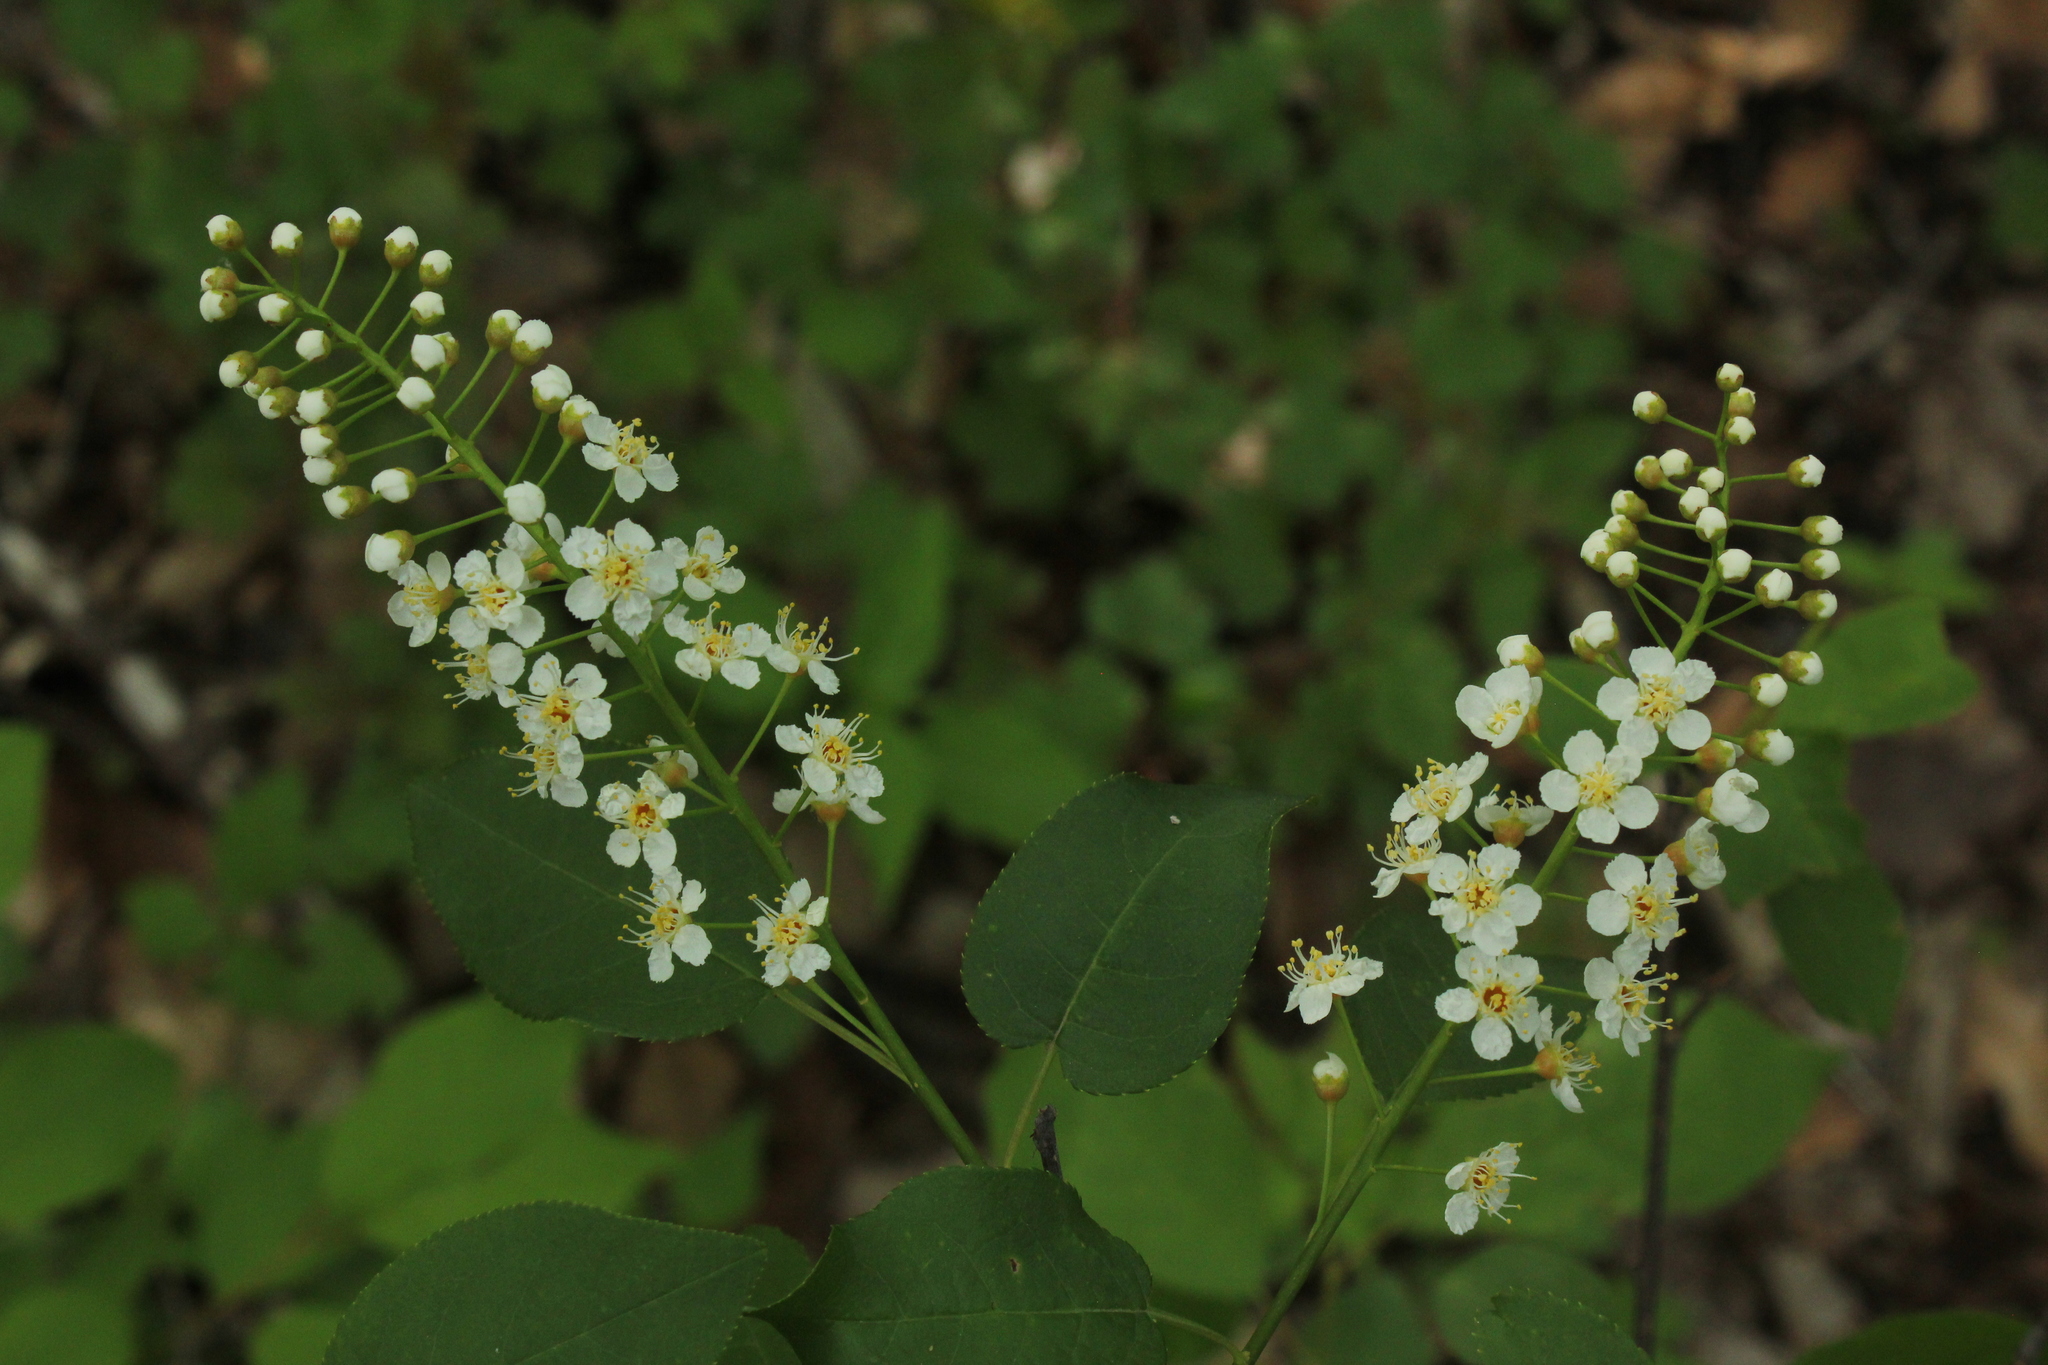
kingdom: Plantae
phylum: Tracheophyta
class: Magnoliopsida
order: Rosales
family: Rosaceae
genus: Prunus
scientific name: Prunus virginiana
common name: Chokecherry
